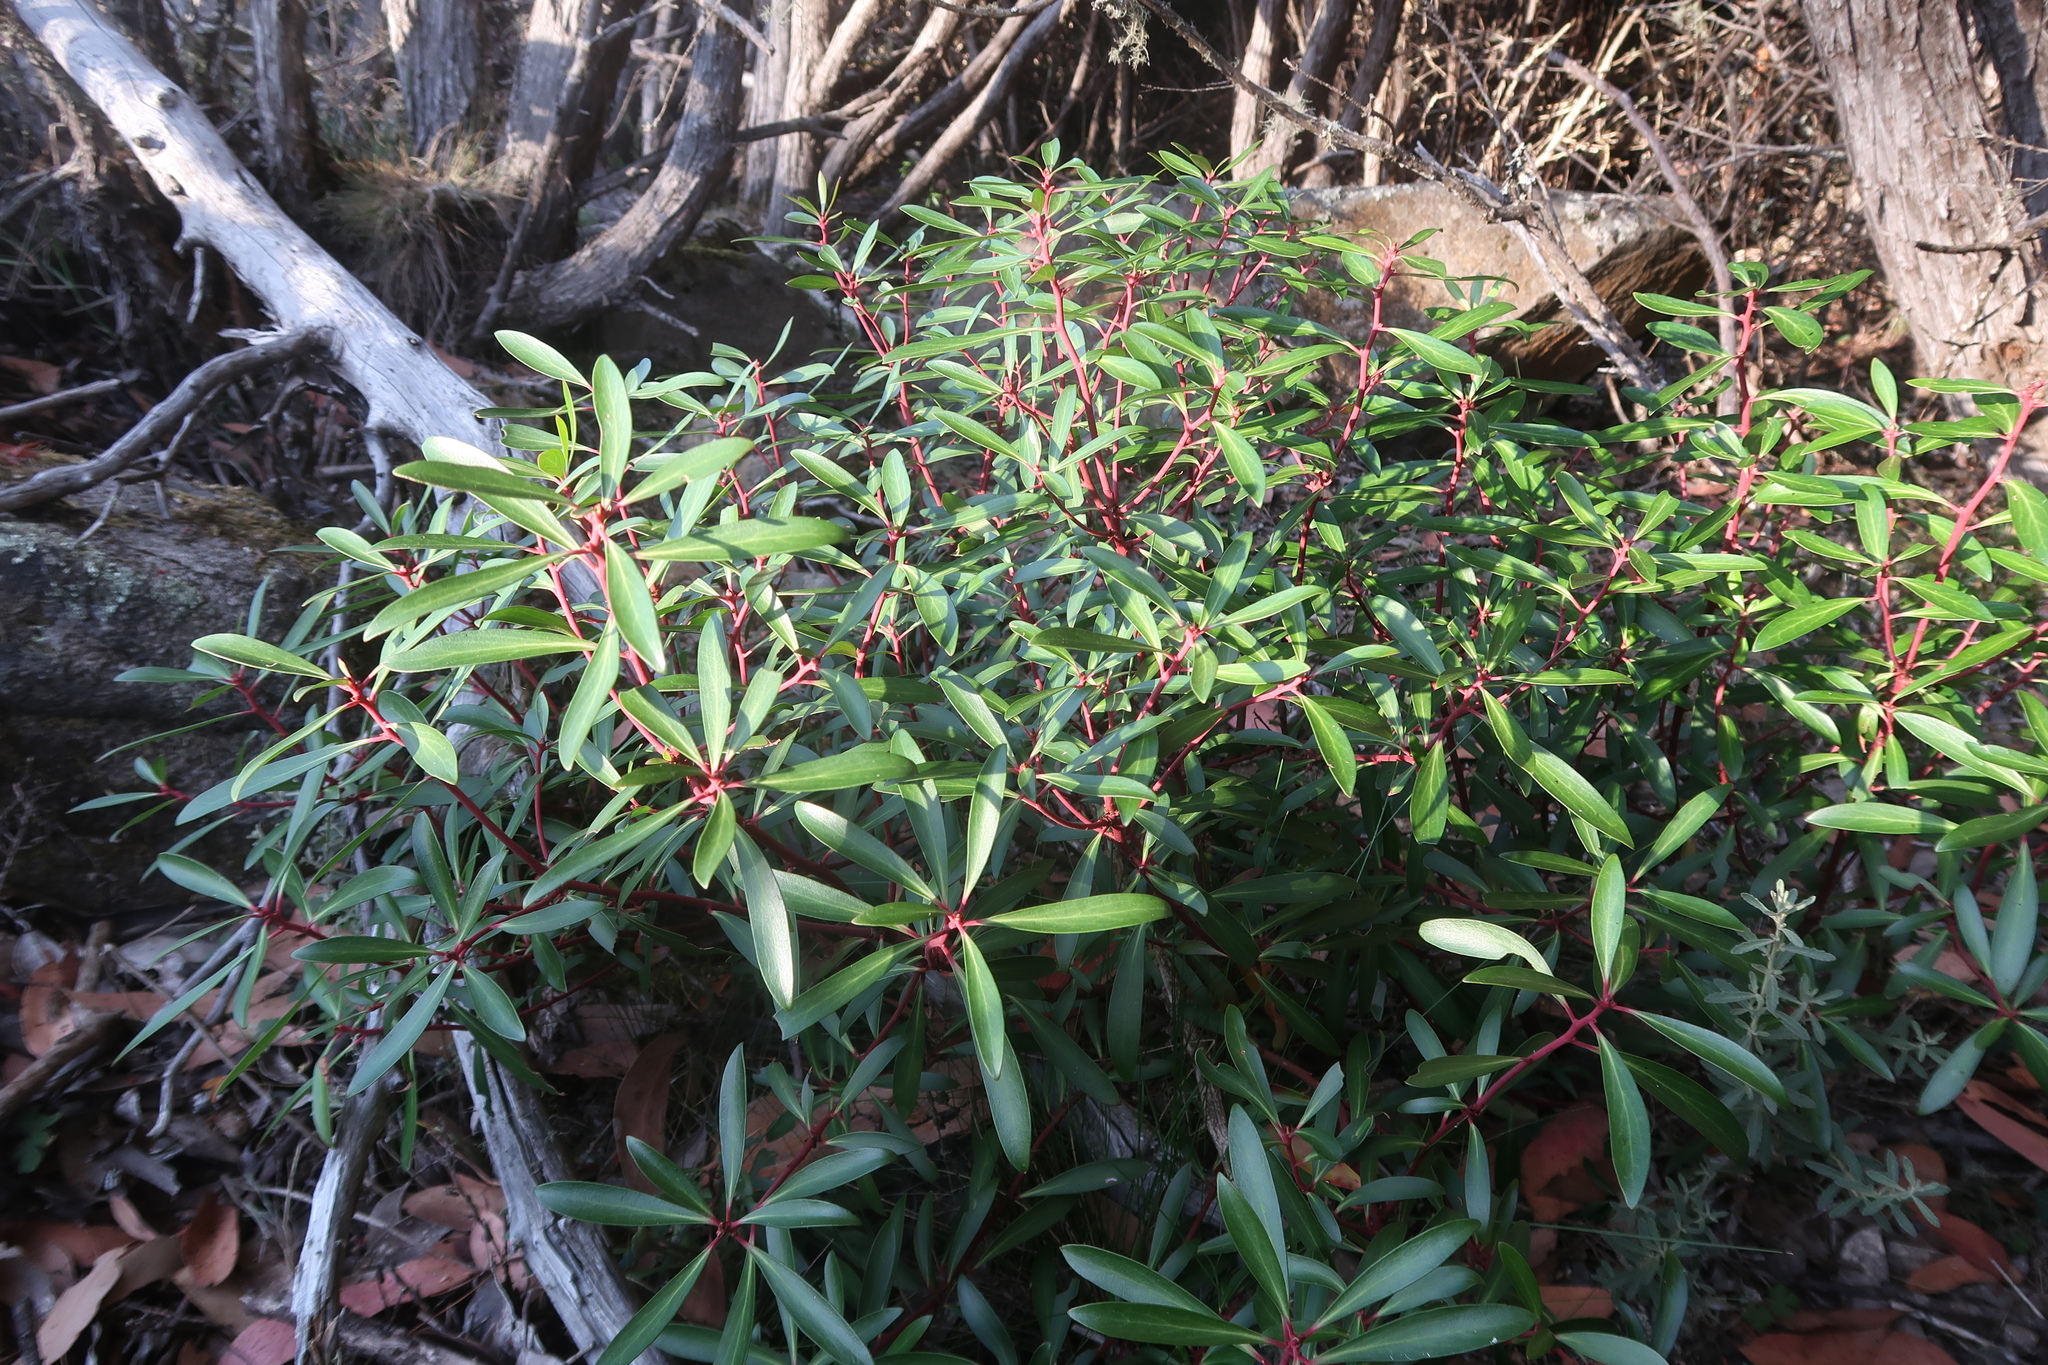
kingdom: Plantae
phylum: Tracheophyta
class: Magnoliopsida
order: Canellales
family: Winteraceae
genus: Drimys
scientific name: Drimys aromatica
